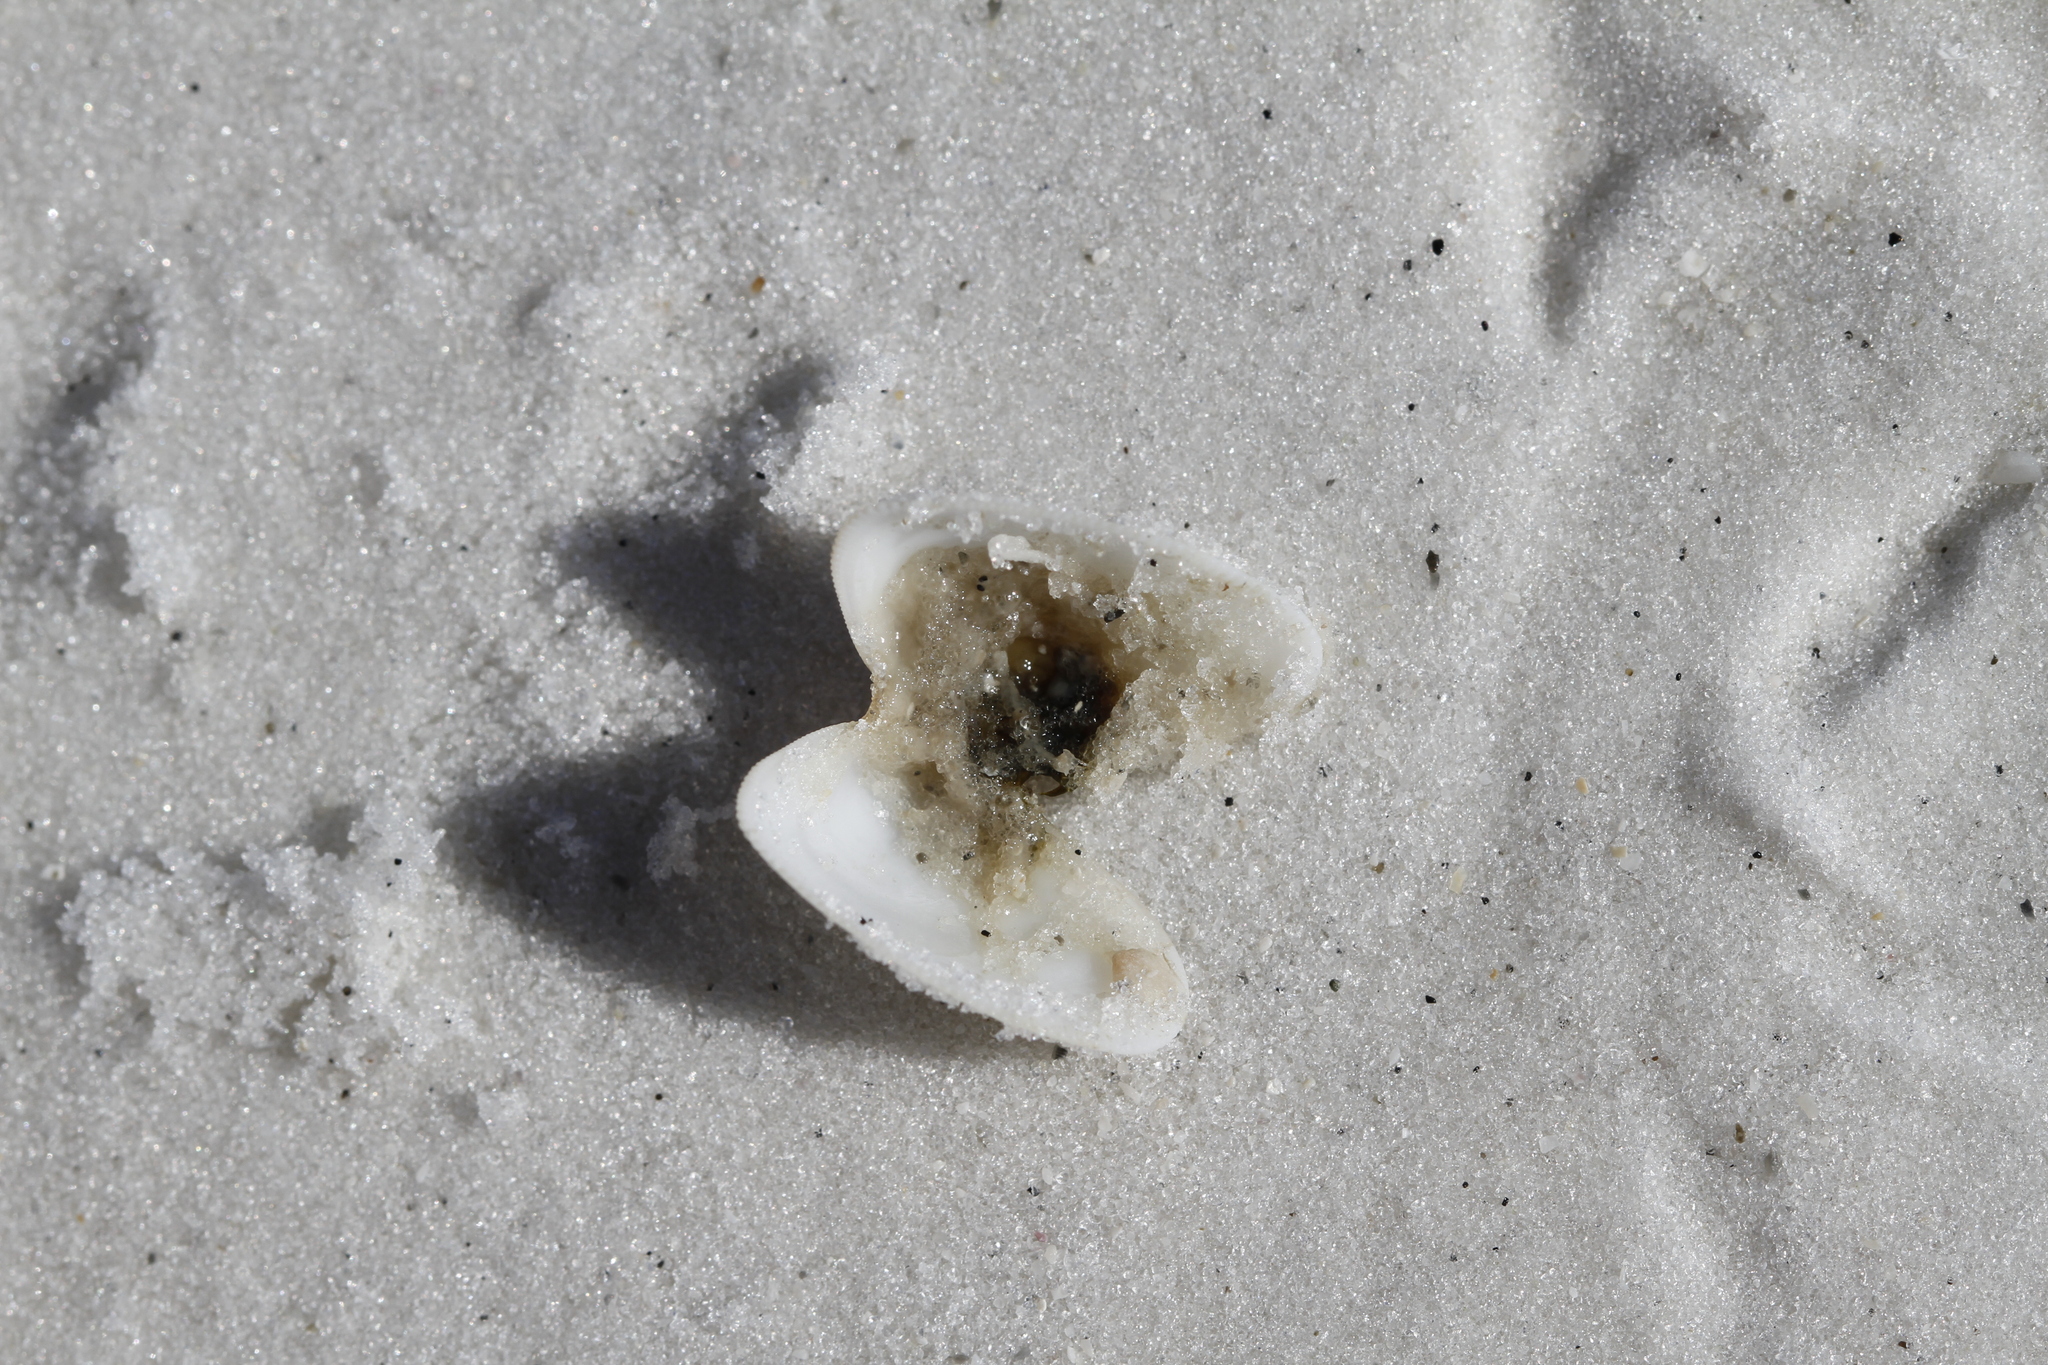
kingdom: Animalia
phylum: Mollusca
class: Bivalvia
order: Cardiida
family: Donacidae
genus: Donax
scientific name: Donax variabilis
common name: Butterfly shell
